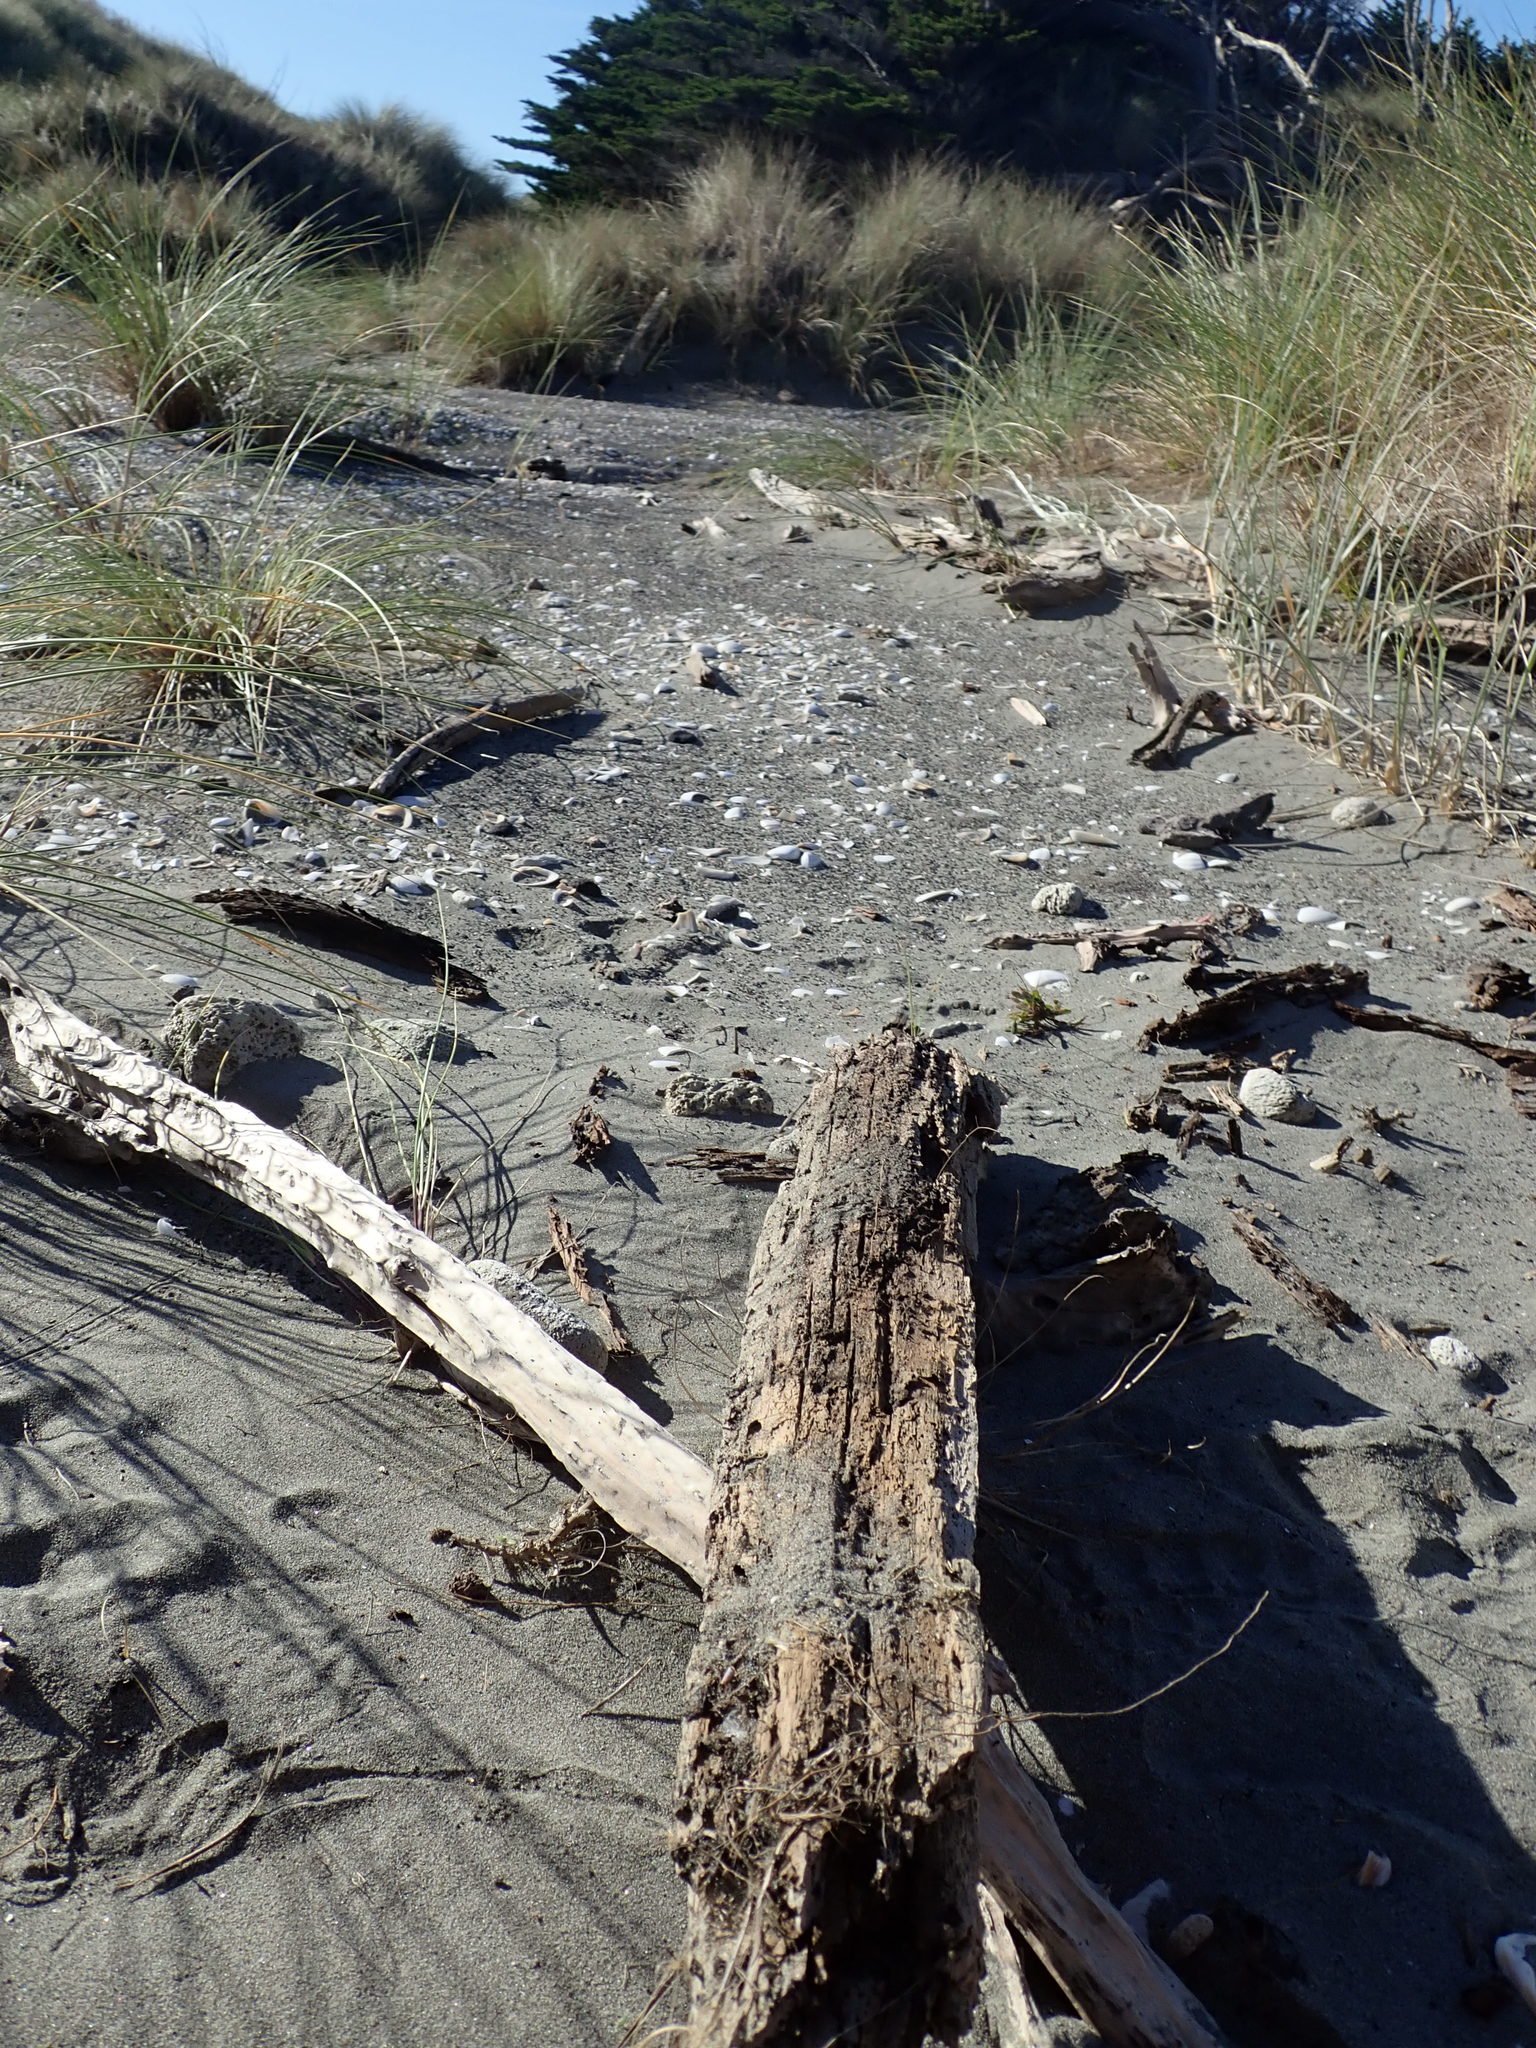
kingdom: Animalia
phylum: Mollusca
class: Gastropoda
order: Neogastropoda
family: Terebridae
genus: Duplicaria
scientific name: Duplicaria tristis
